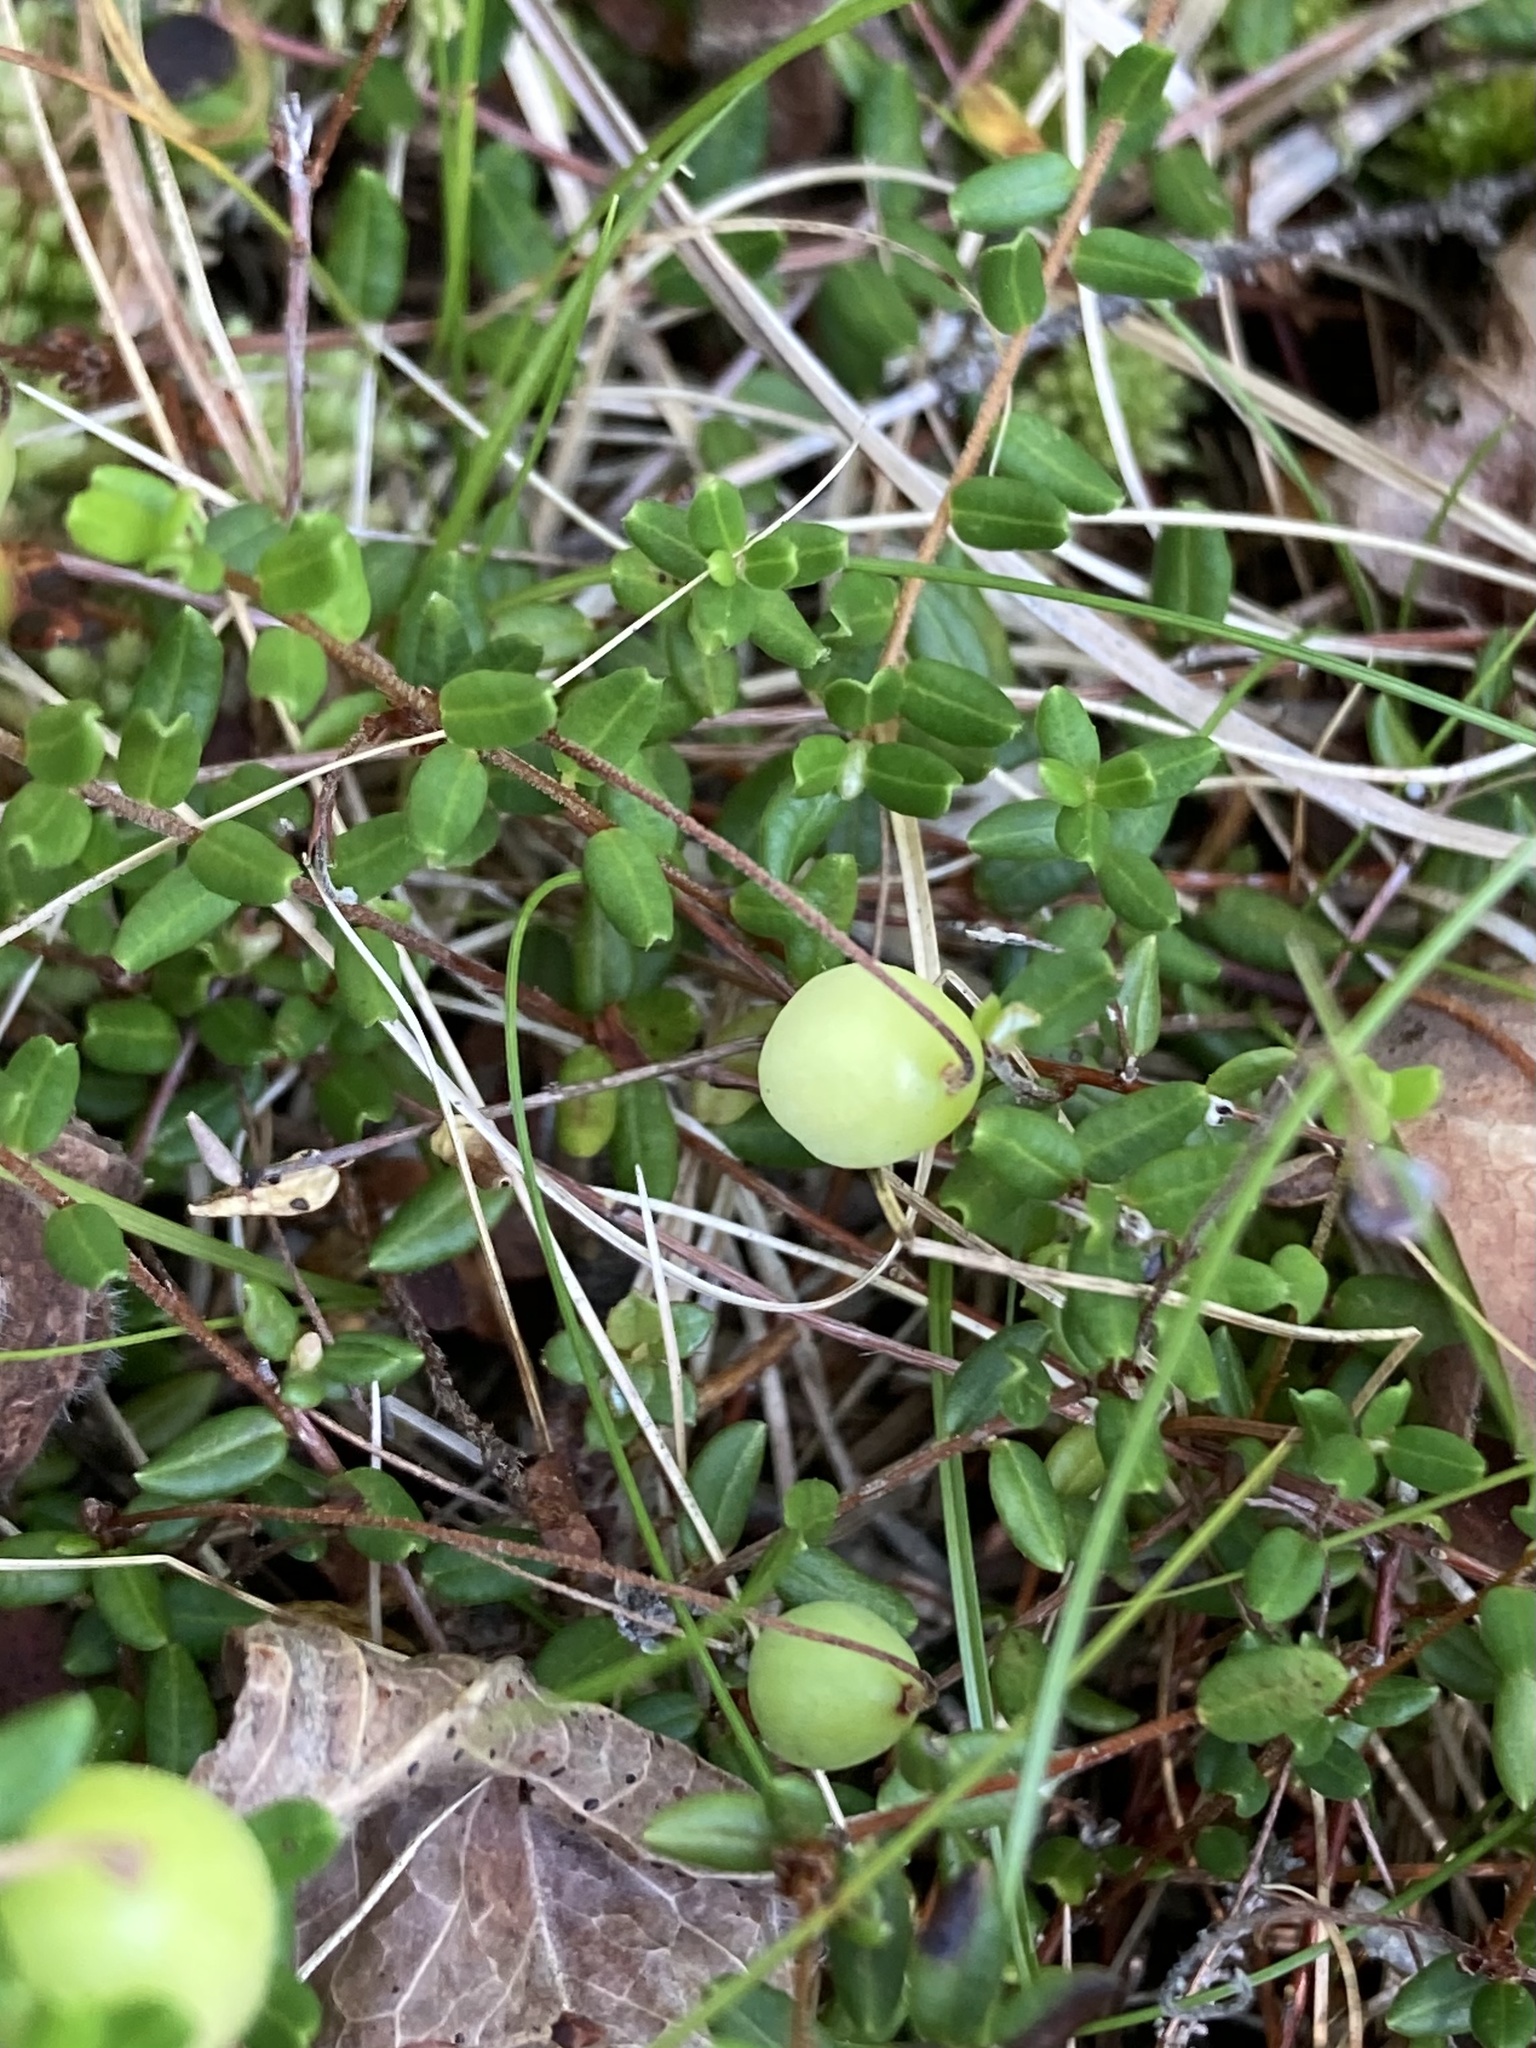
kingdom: Plantae
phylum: Tracheophyta
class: Magnoliopsida
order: Ericales
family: Ericaceae
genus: Vaccinium
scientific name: Vaccinium oxycoccos
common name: Cranberry
